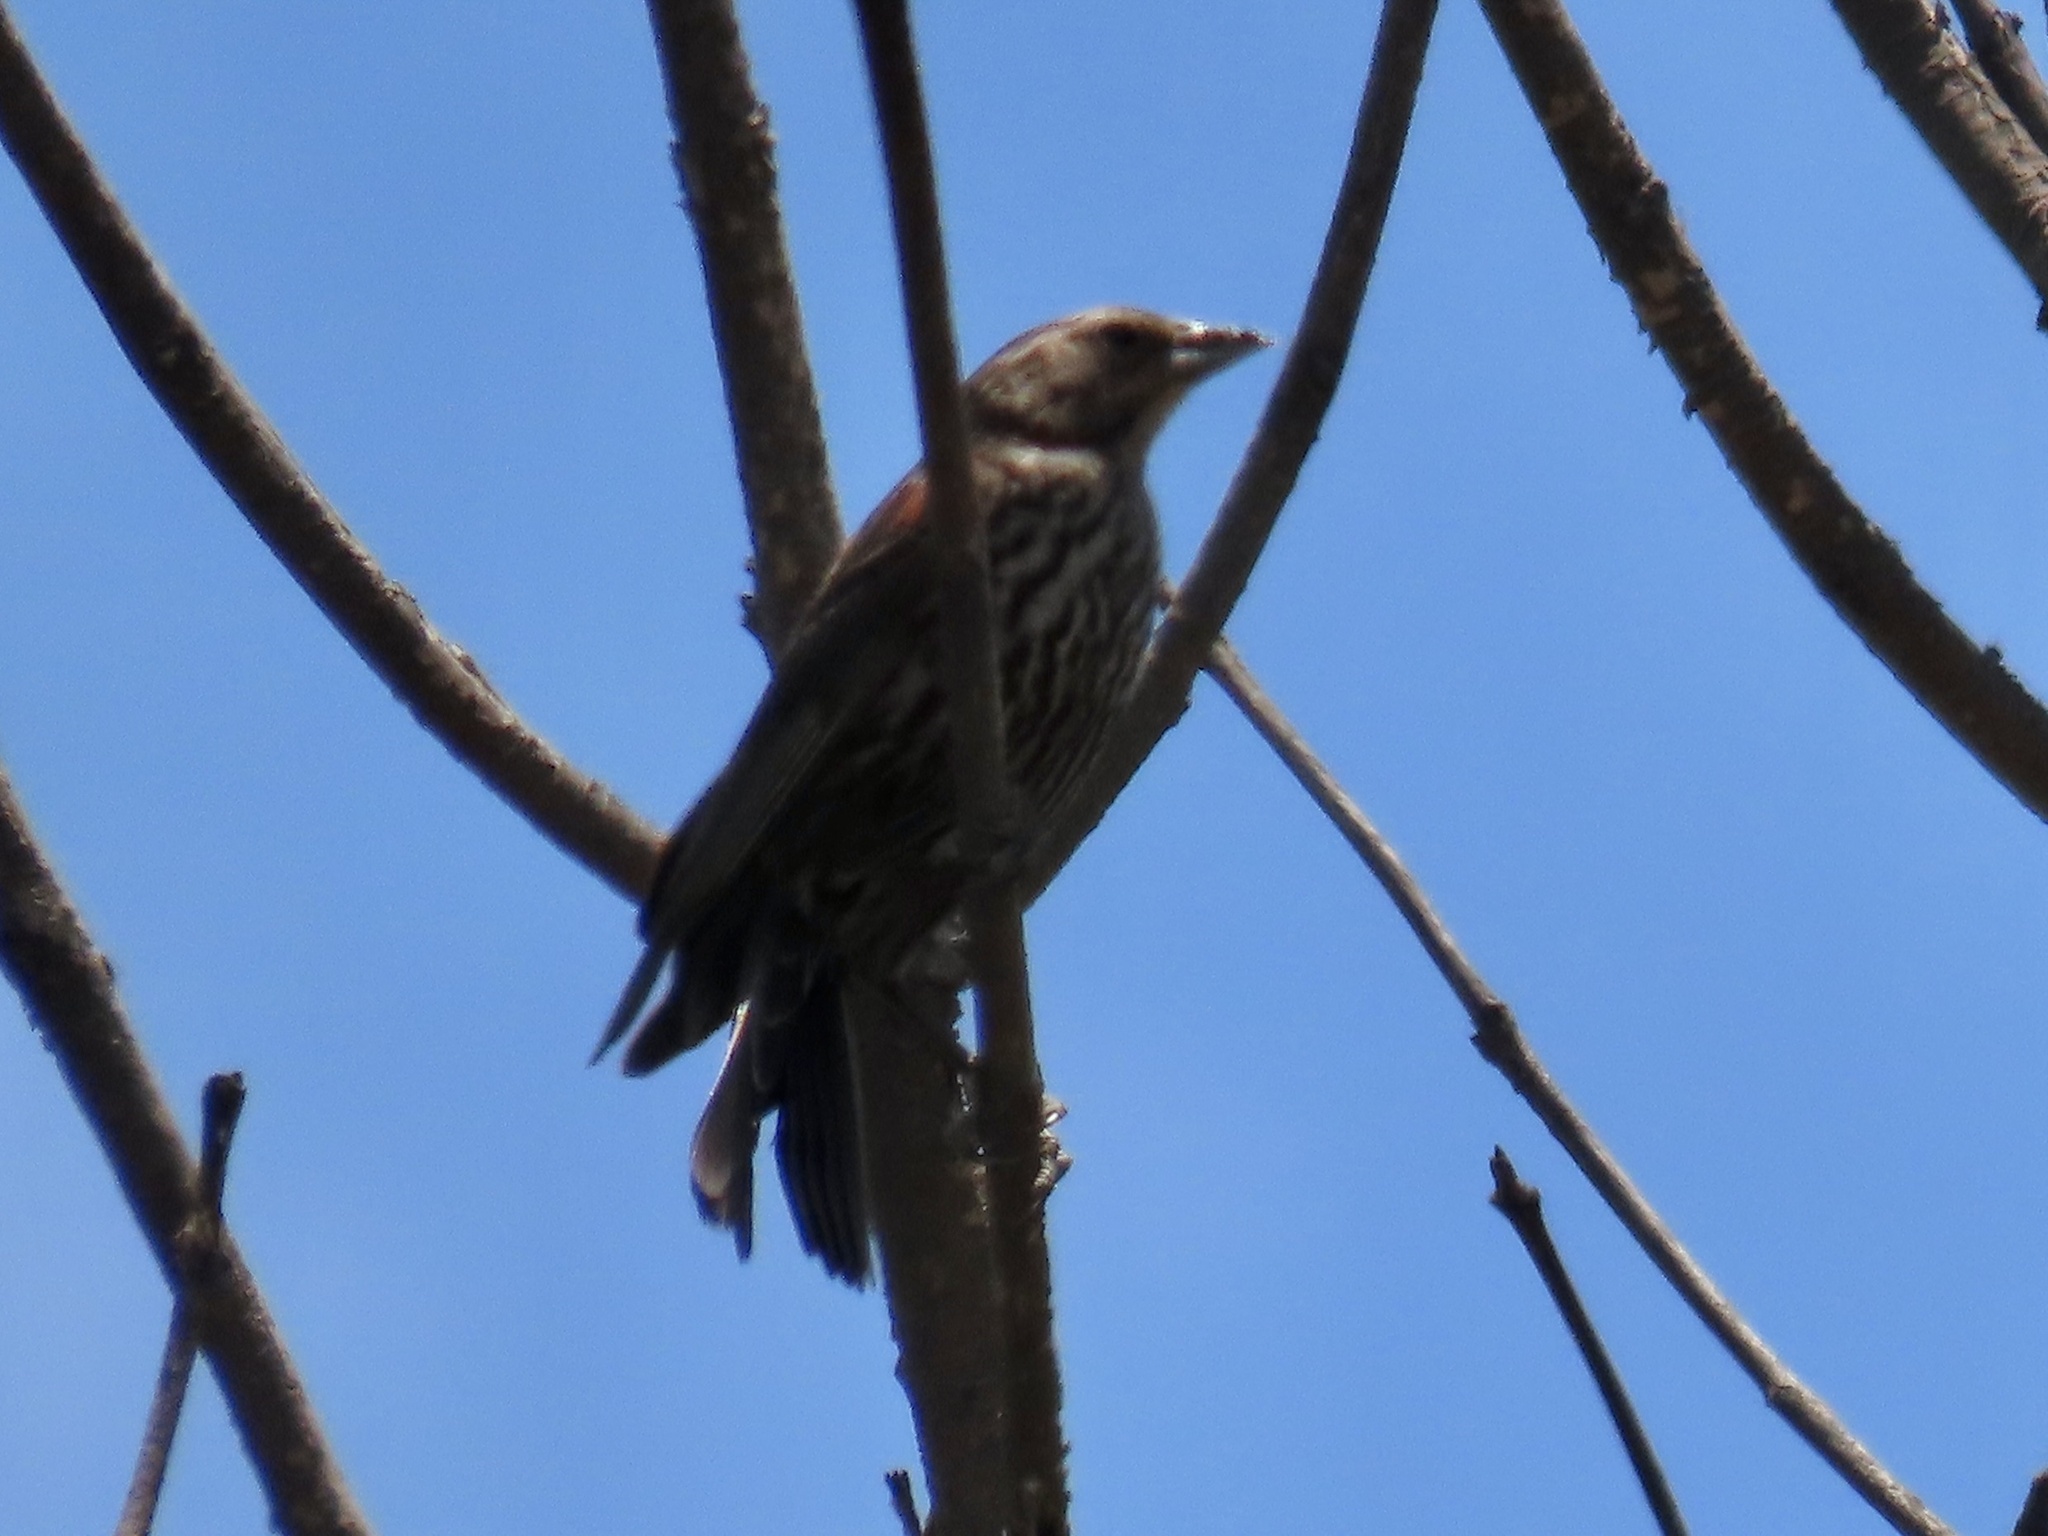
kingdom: Animalia
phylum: Chordata
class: Aves
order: Passeriformes
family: Icteridae
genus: Agelaius
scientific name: Agelaius phoeniceus
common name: Red-winged blackbird
